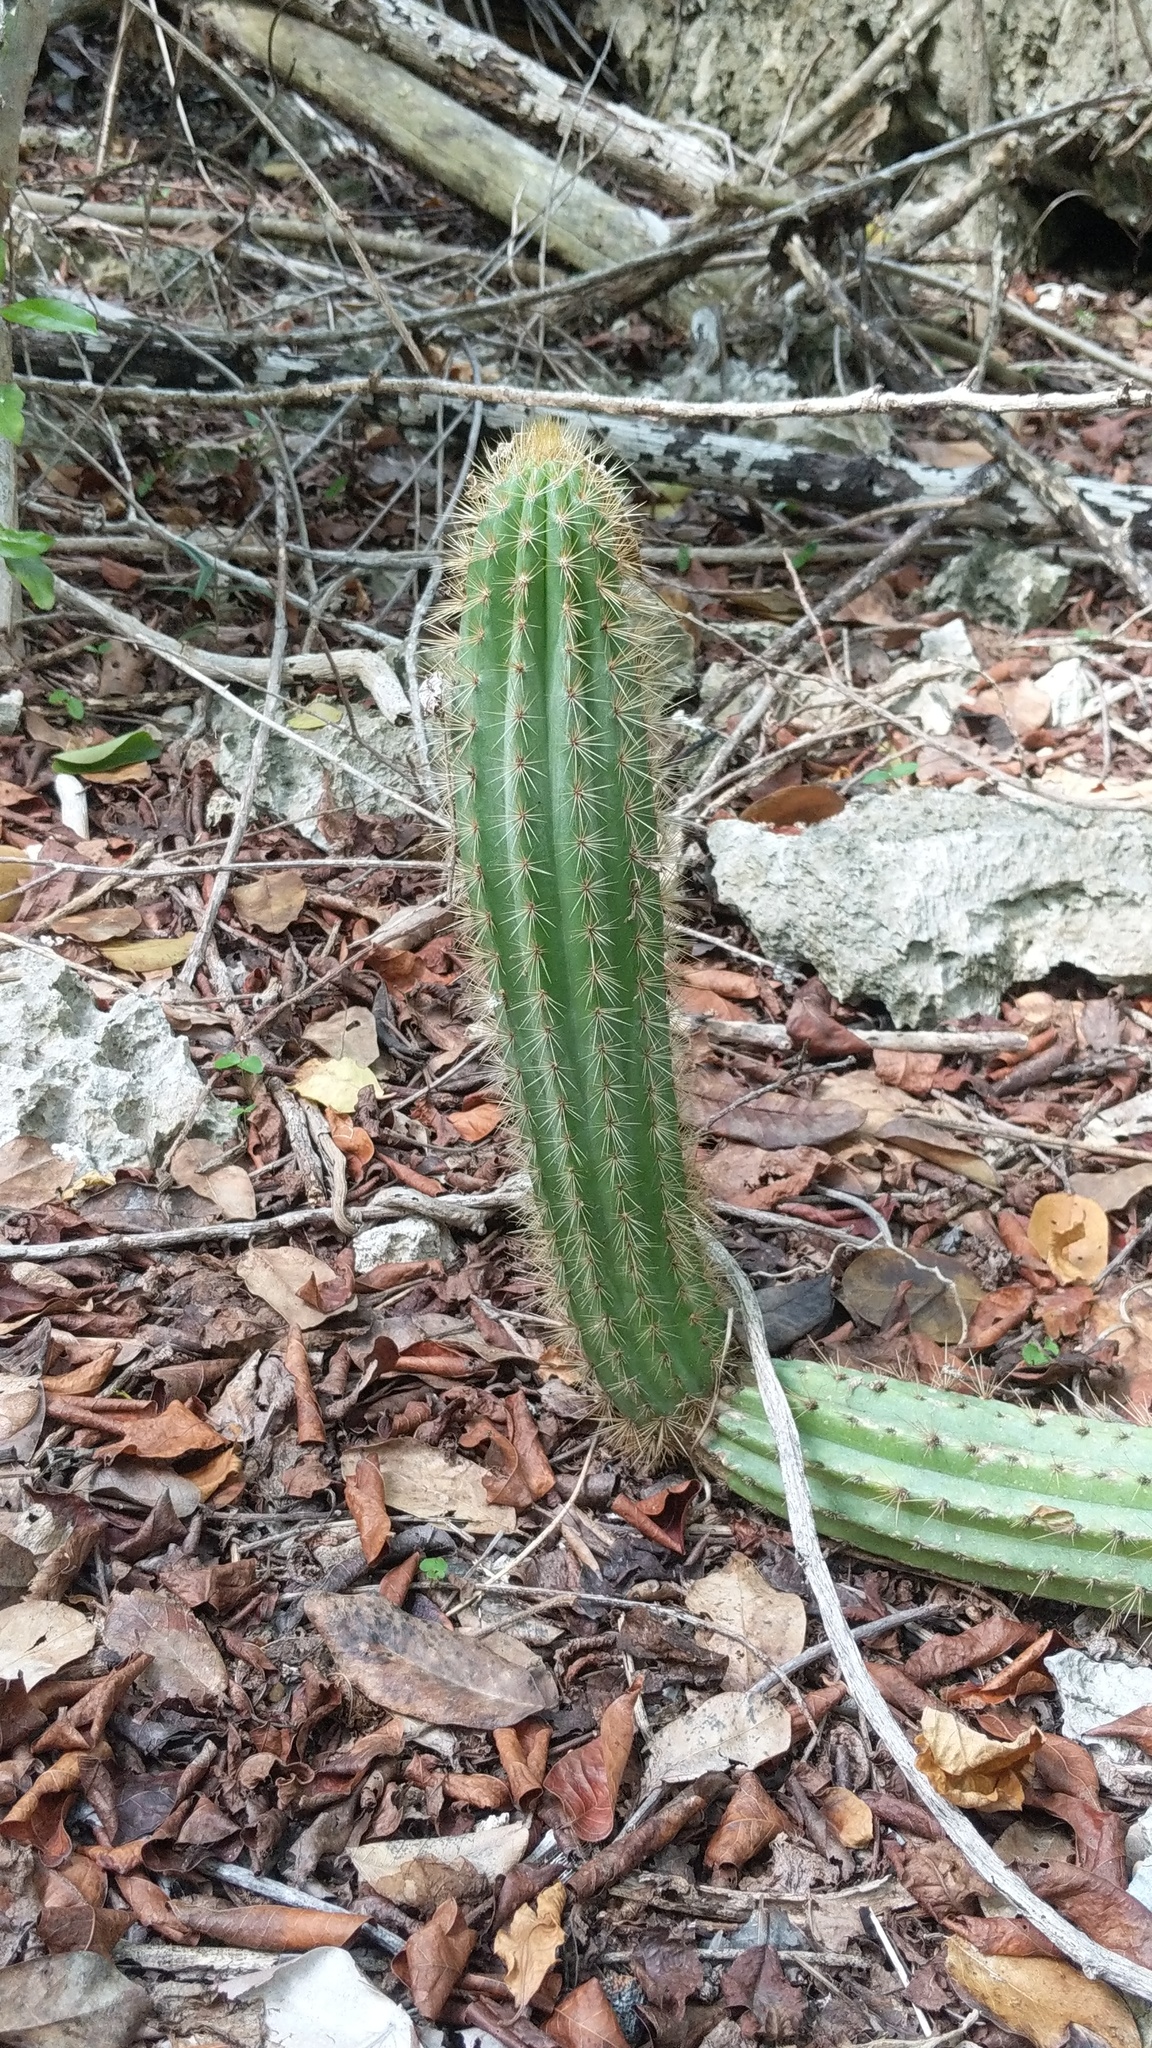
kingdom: Plantae
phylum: Tracheophyta
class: Magnoliopsida
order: Caryophyllales
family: Cactaceae
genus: Pilosocereus
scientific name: Pilosocereus jamaicensis
